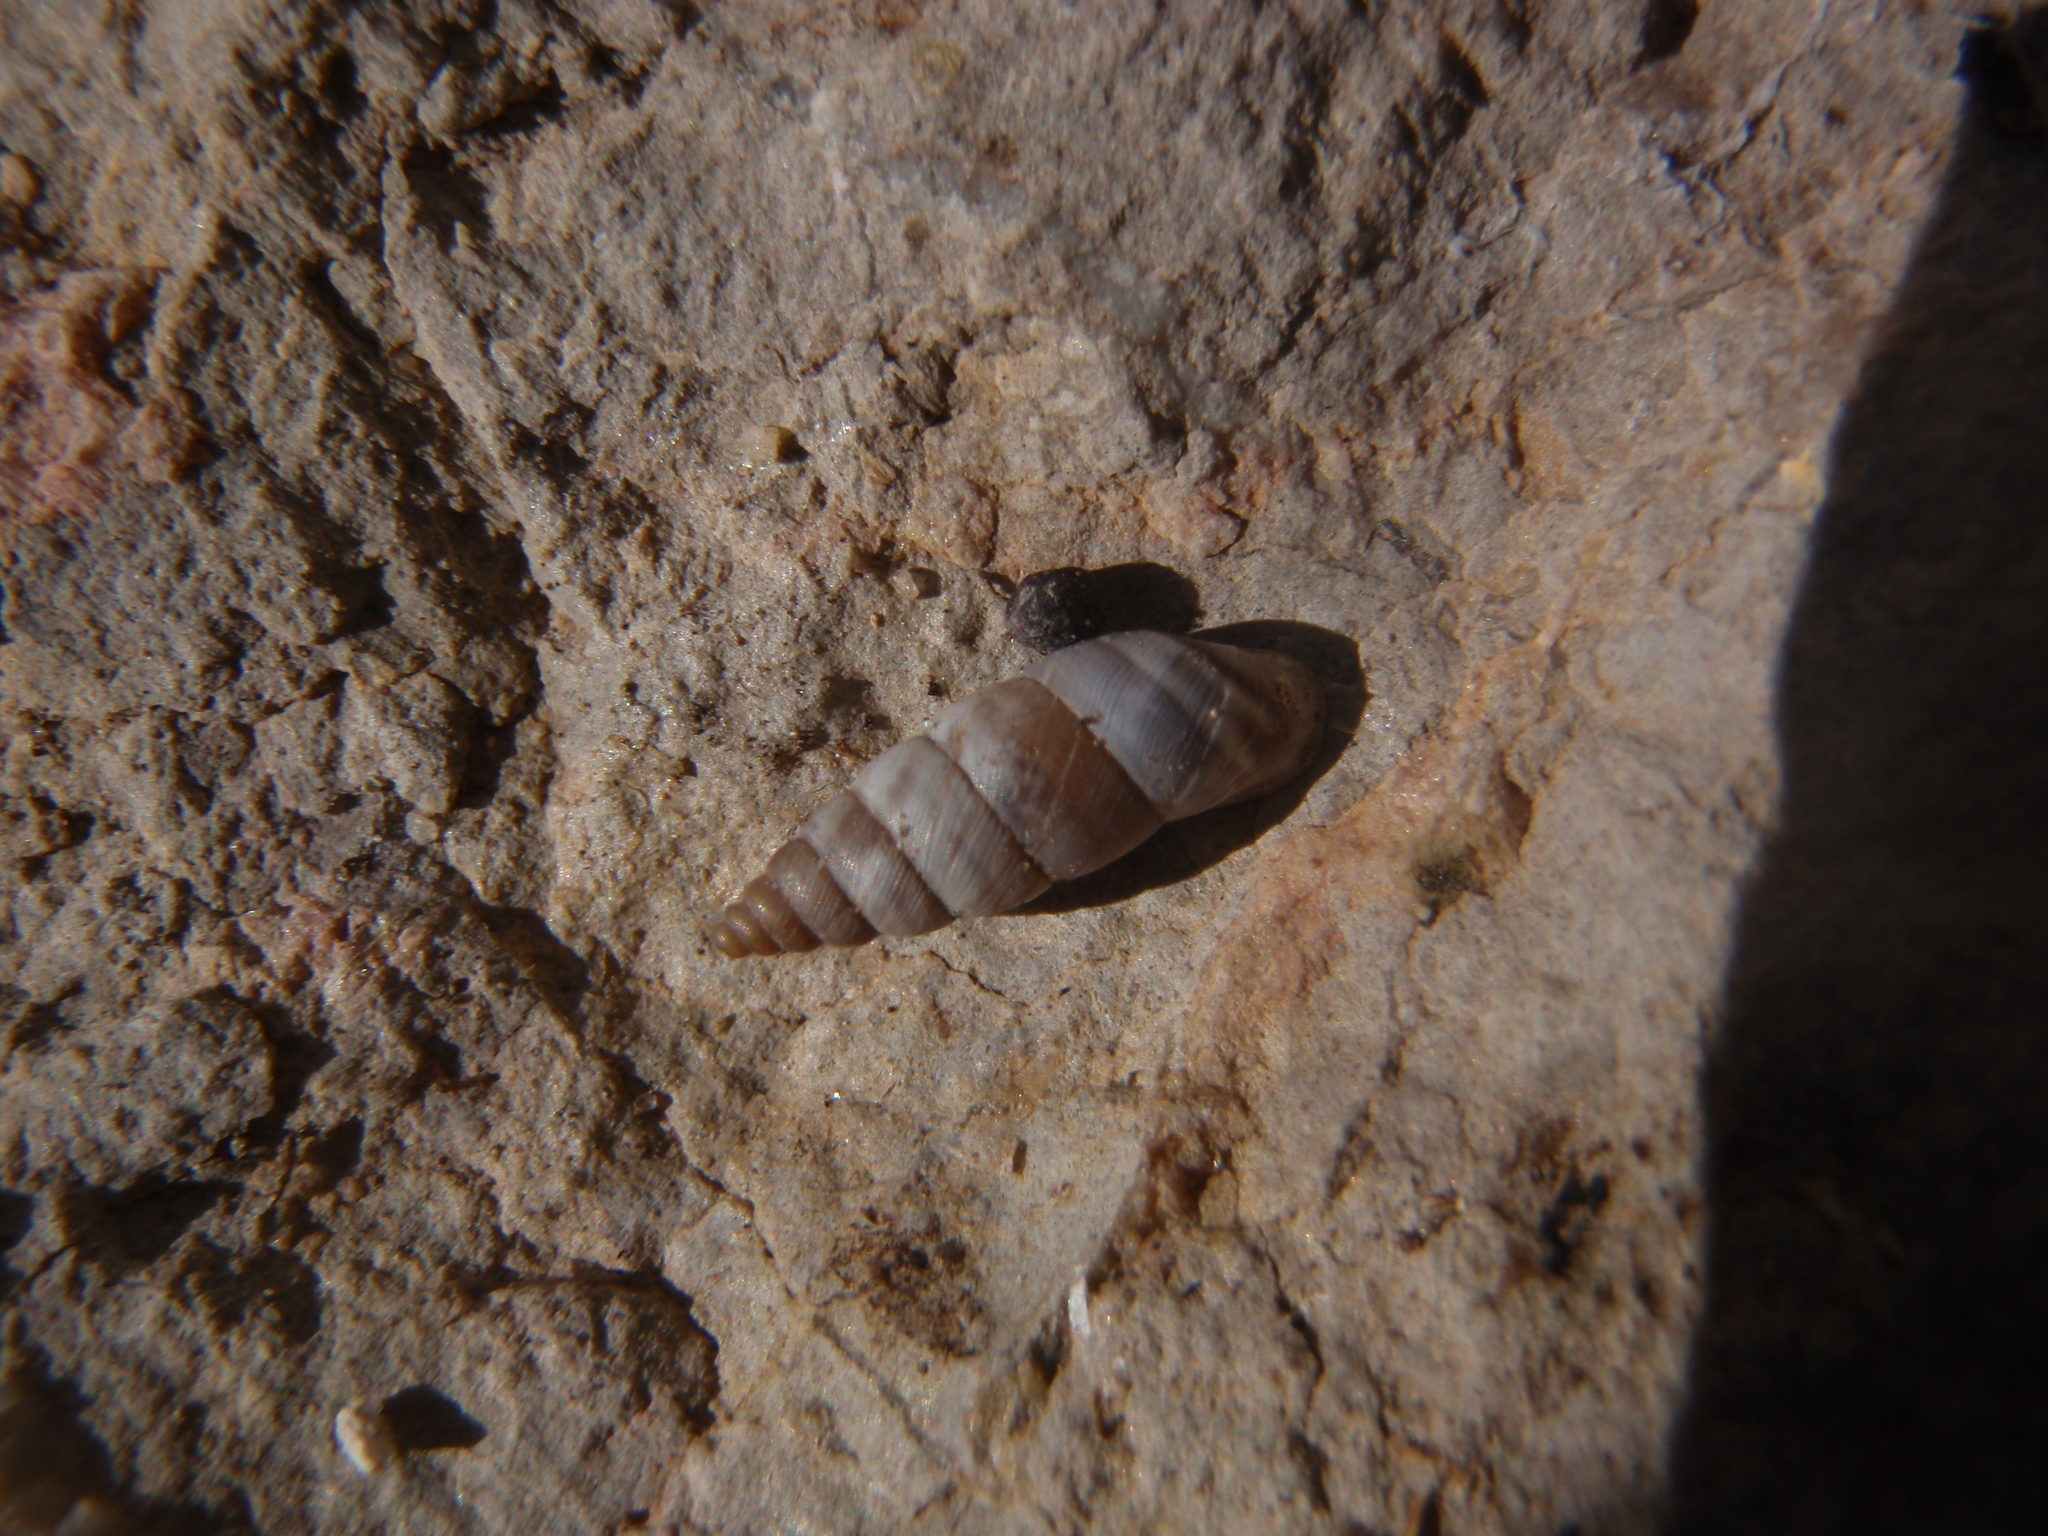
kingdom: Animalia
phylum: Mollusca
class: Gastropoda
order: Stylommatophora
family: Chondrinidae
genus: Solatopupa
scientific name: Solatopupa similis
